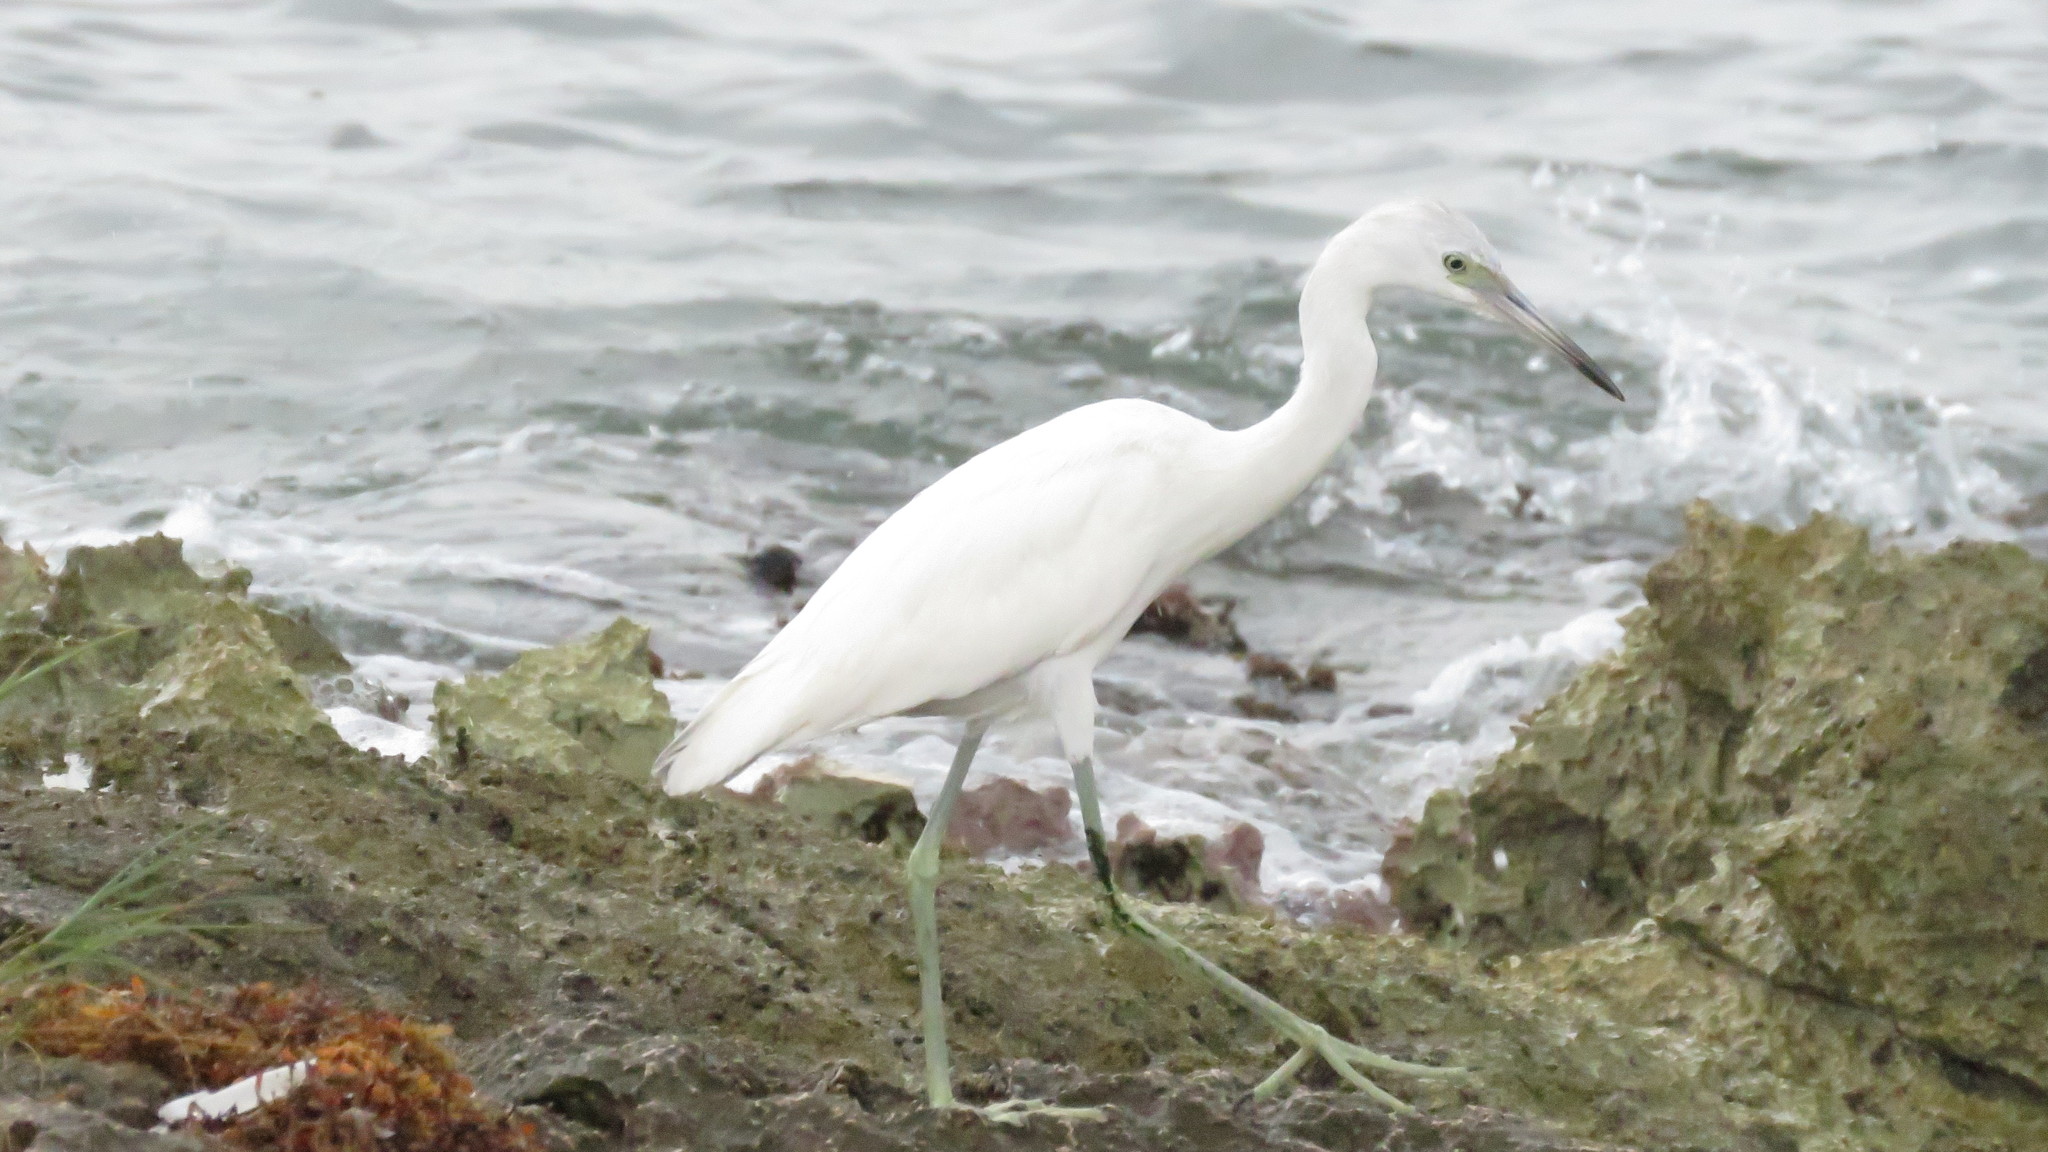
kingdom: Animalia
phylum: Chordata
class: Aves
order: Pelecaniformes
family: Ardeidae
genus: Egretta
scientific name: Egretta caerulea
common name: Little blue heron
